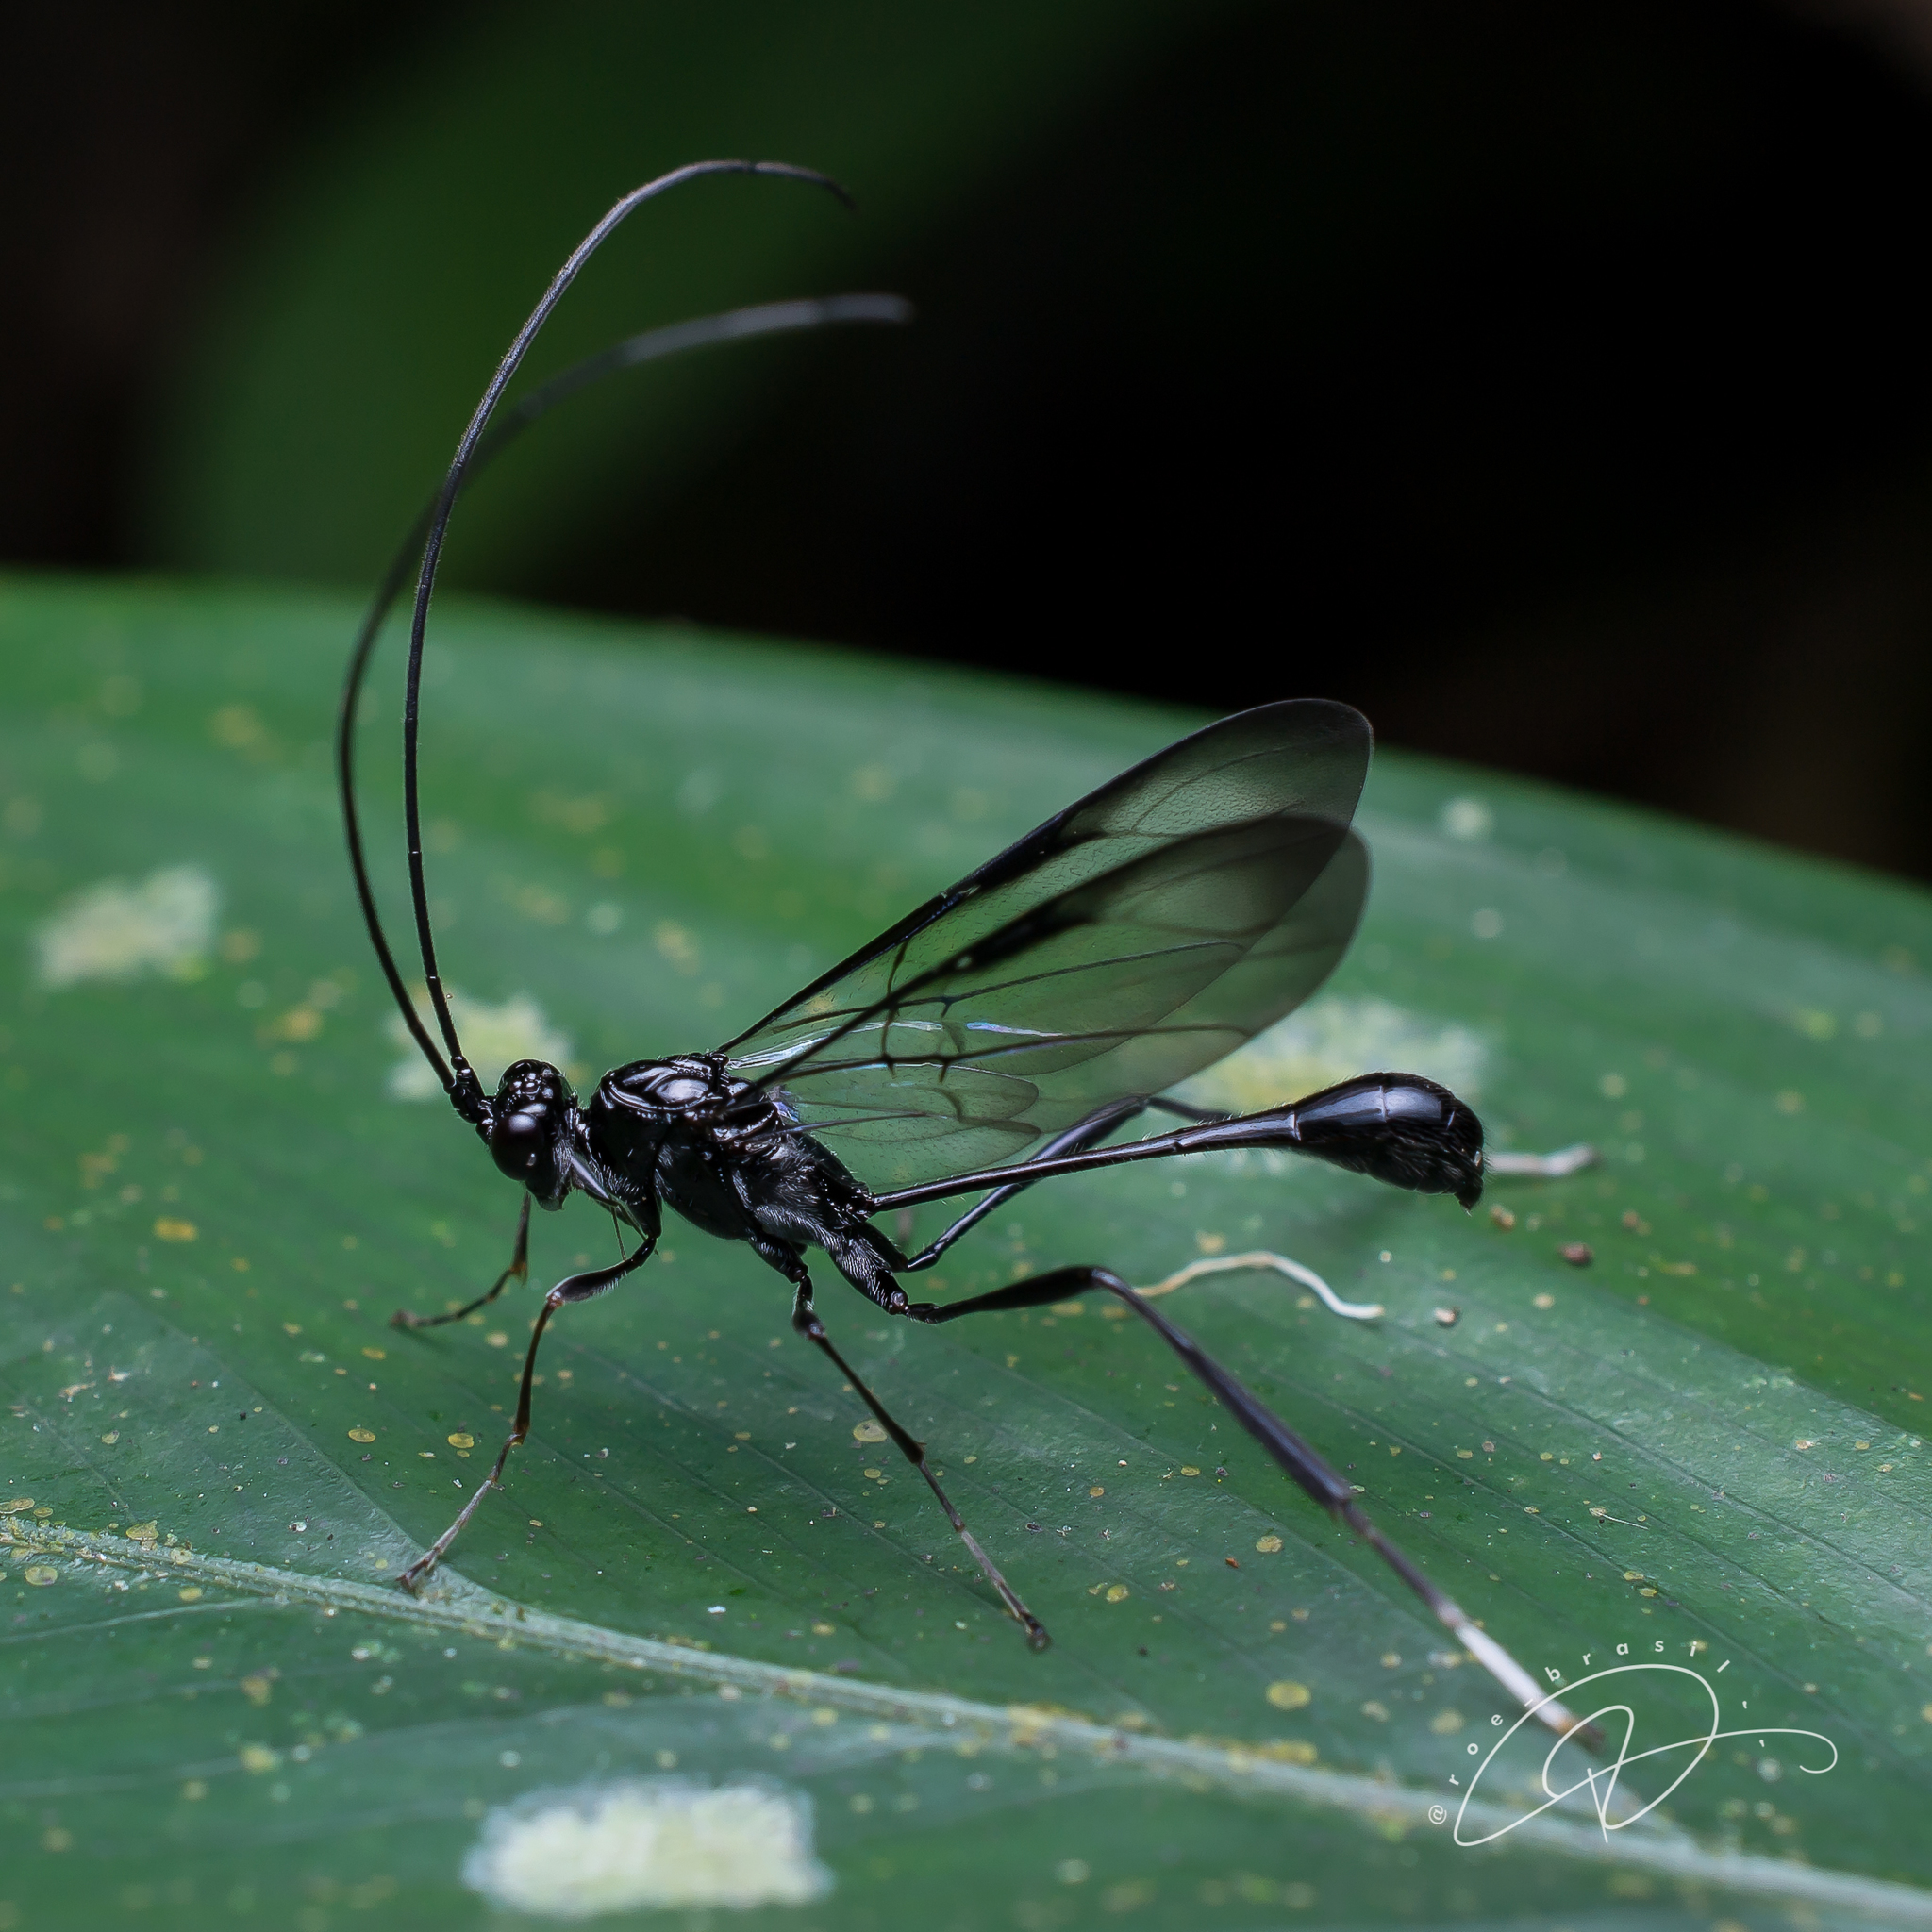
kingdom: Animalia
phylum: Arthropoda
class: Insecta
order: Hymenoptera
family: Pelecinidae
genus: Pelecinus
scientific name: Pelecinus polyturator
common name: American pelecinid wasp
